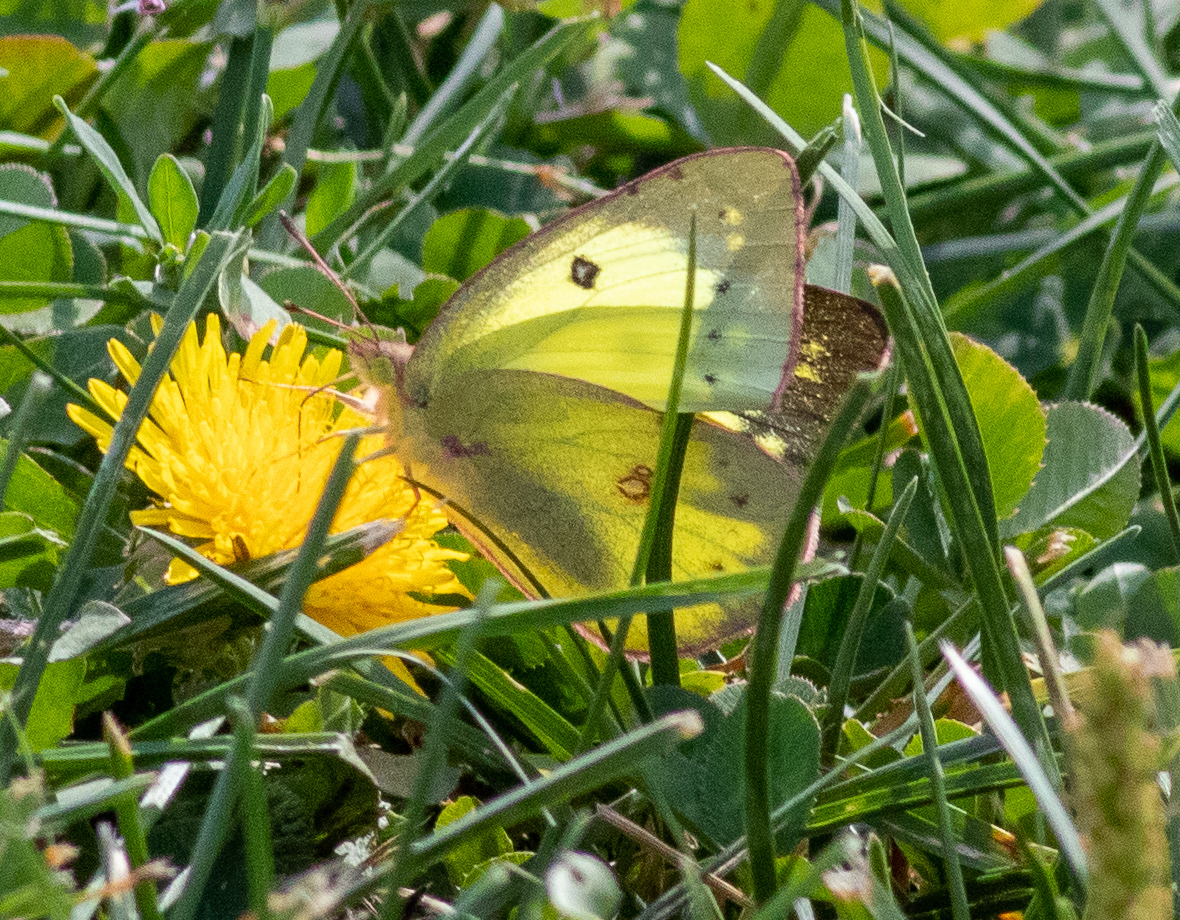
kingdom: Animalia
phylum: Arthropoda
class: Insecta
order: Lepidoptera
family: Pieridae
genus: Colias
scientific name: Colias philodice
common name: Clouded sulphur
